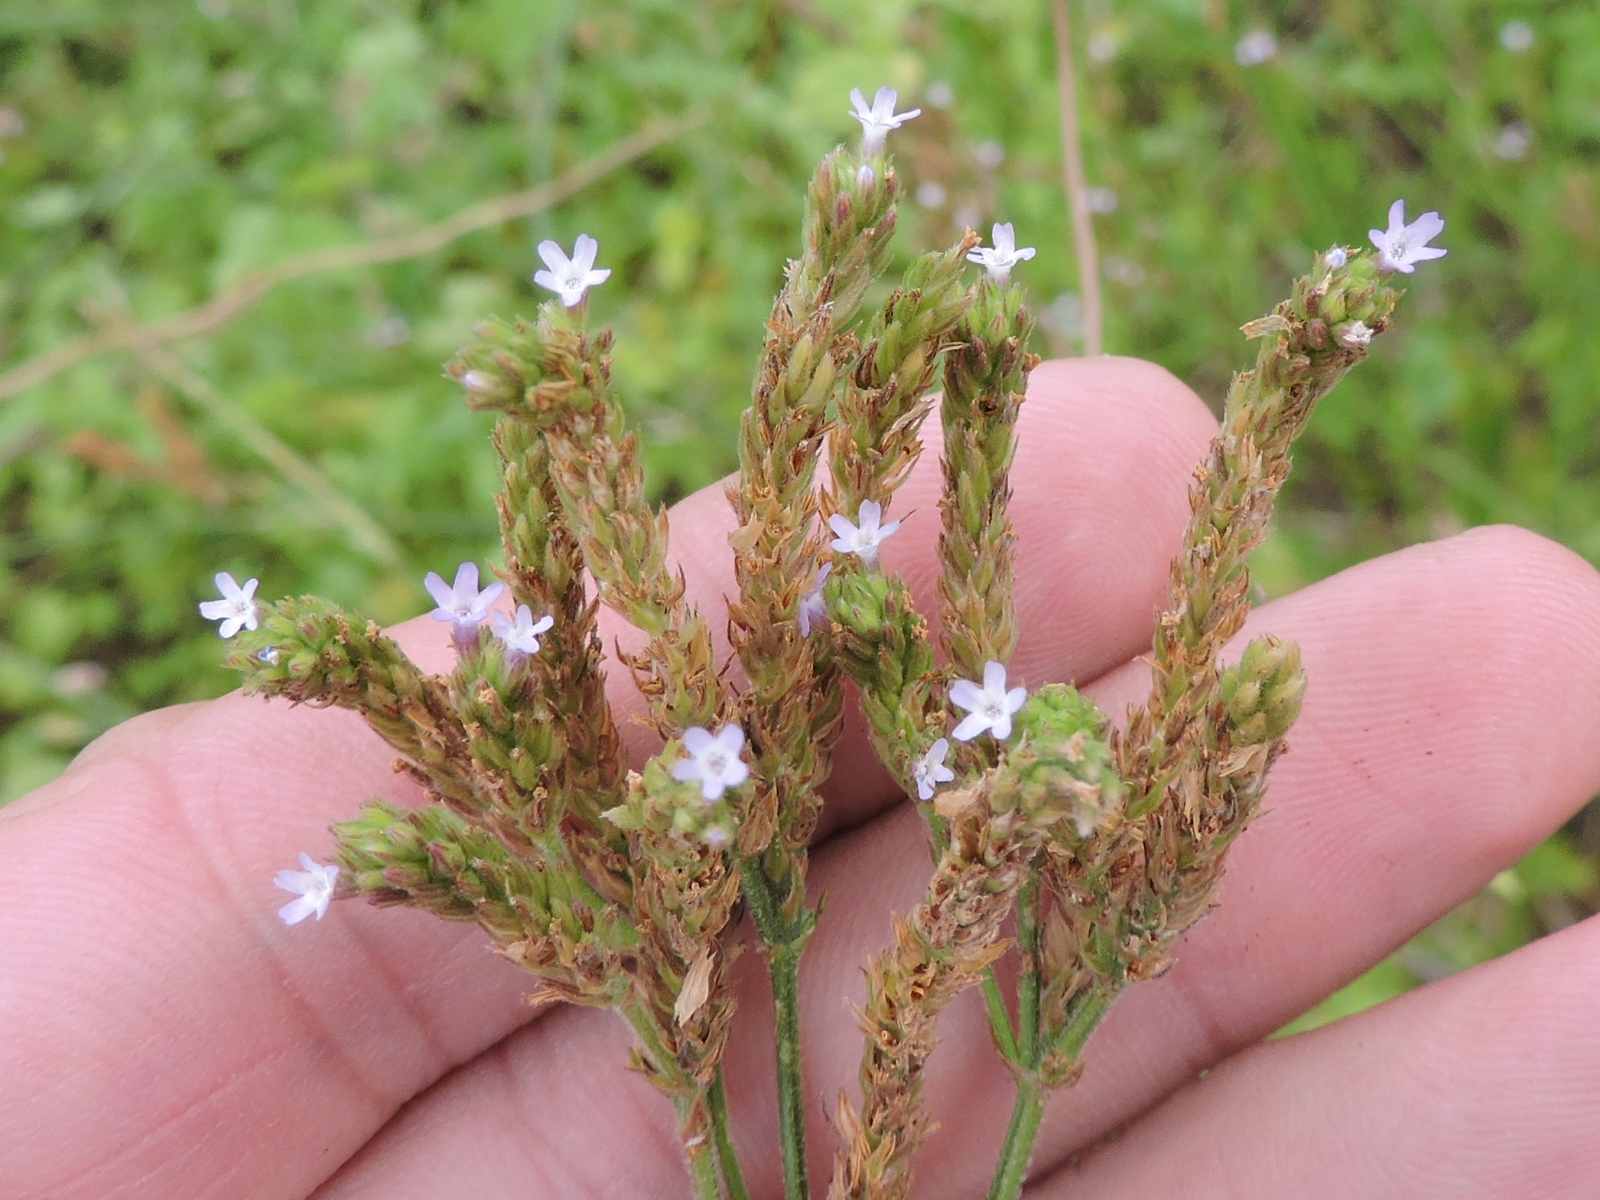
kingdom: Plantae
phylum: Tracheophyta
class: Magnoliopsida
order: Lamiales
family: Verbenaceae
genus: Verbena
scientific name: Verbena brasiliensis
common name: Brazilian vervain
